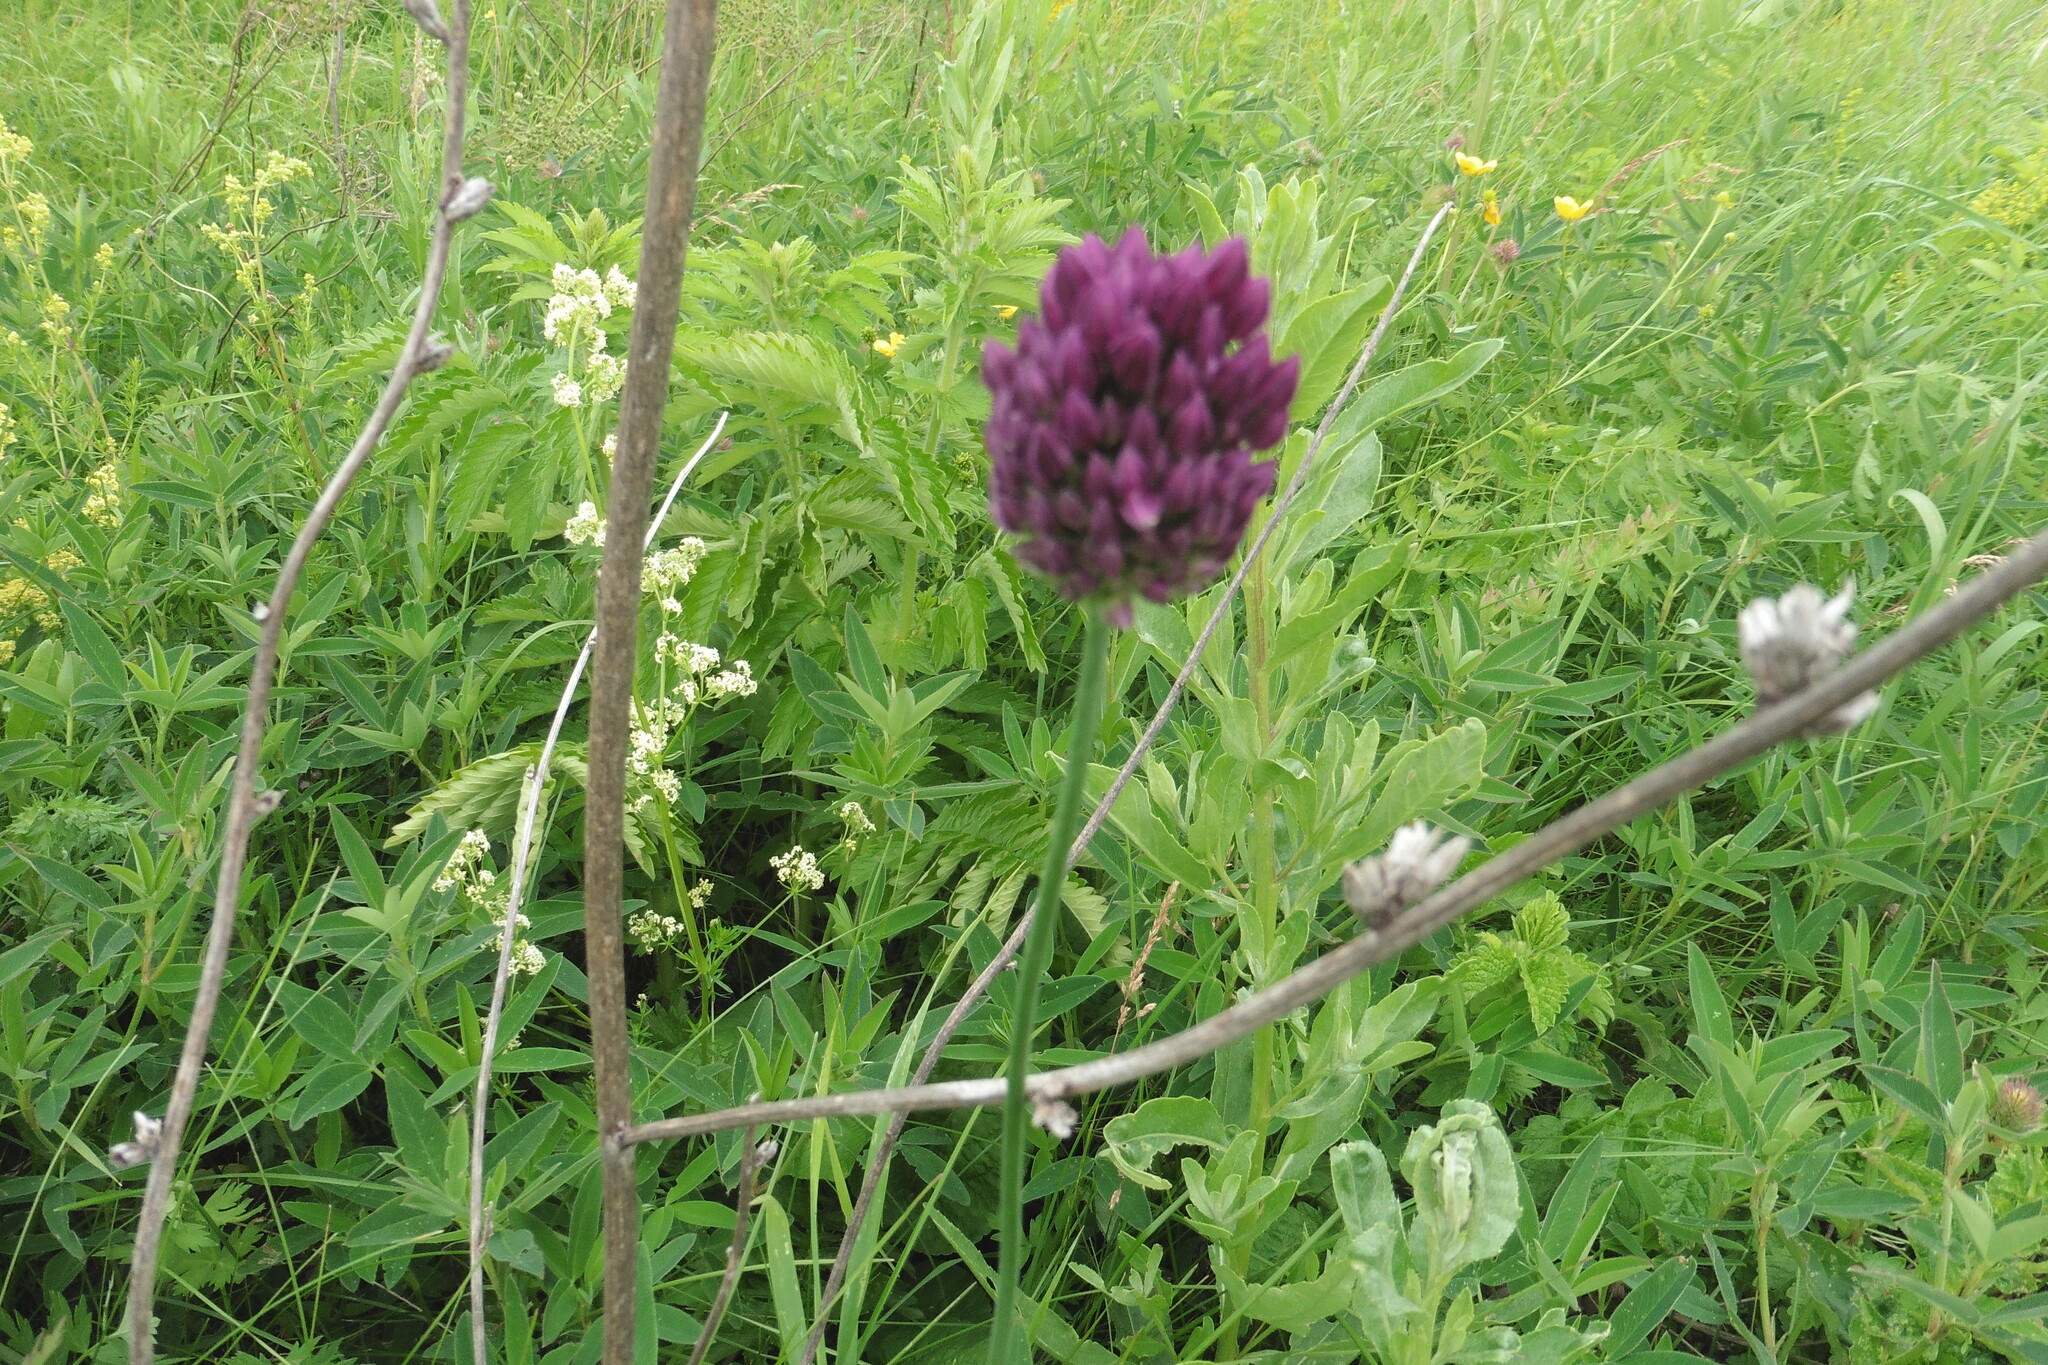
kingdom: Plantae
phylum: Tracheophyta
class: Liliopsida
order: Asparagales
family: Amaryllidaceae
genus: Allium
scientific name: Allium rotundum
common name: Sand leek
